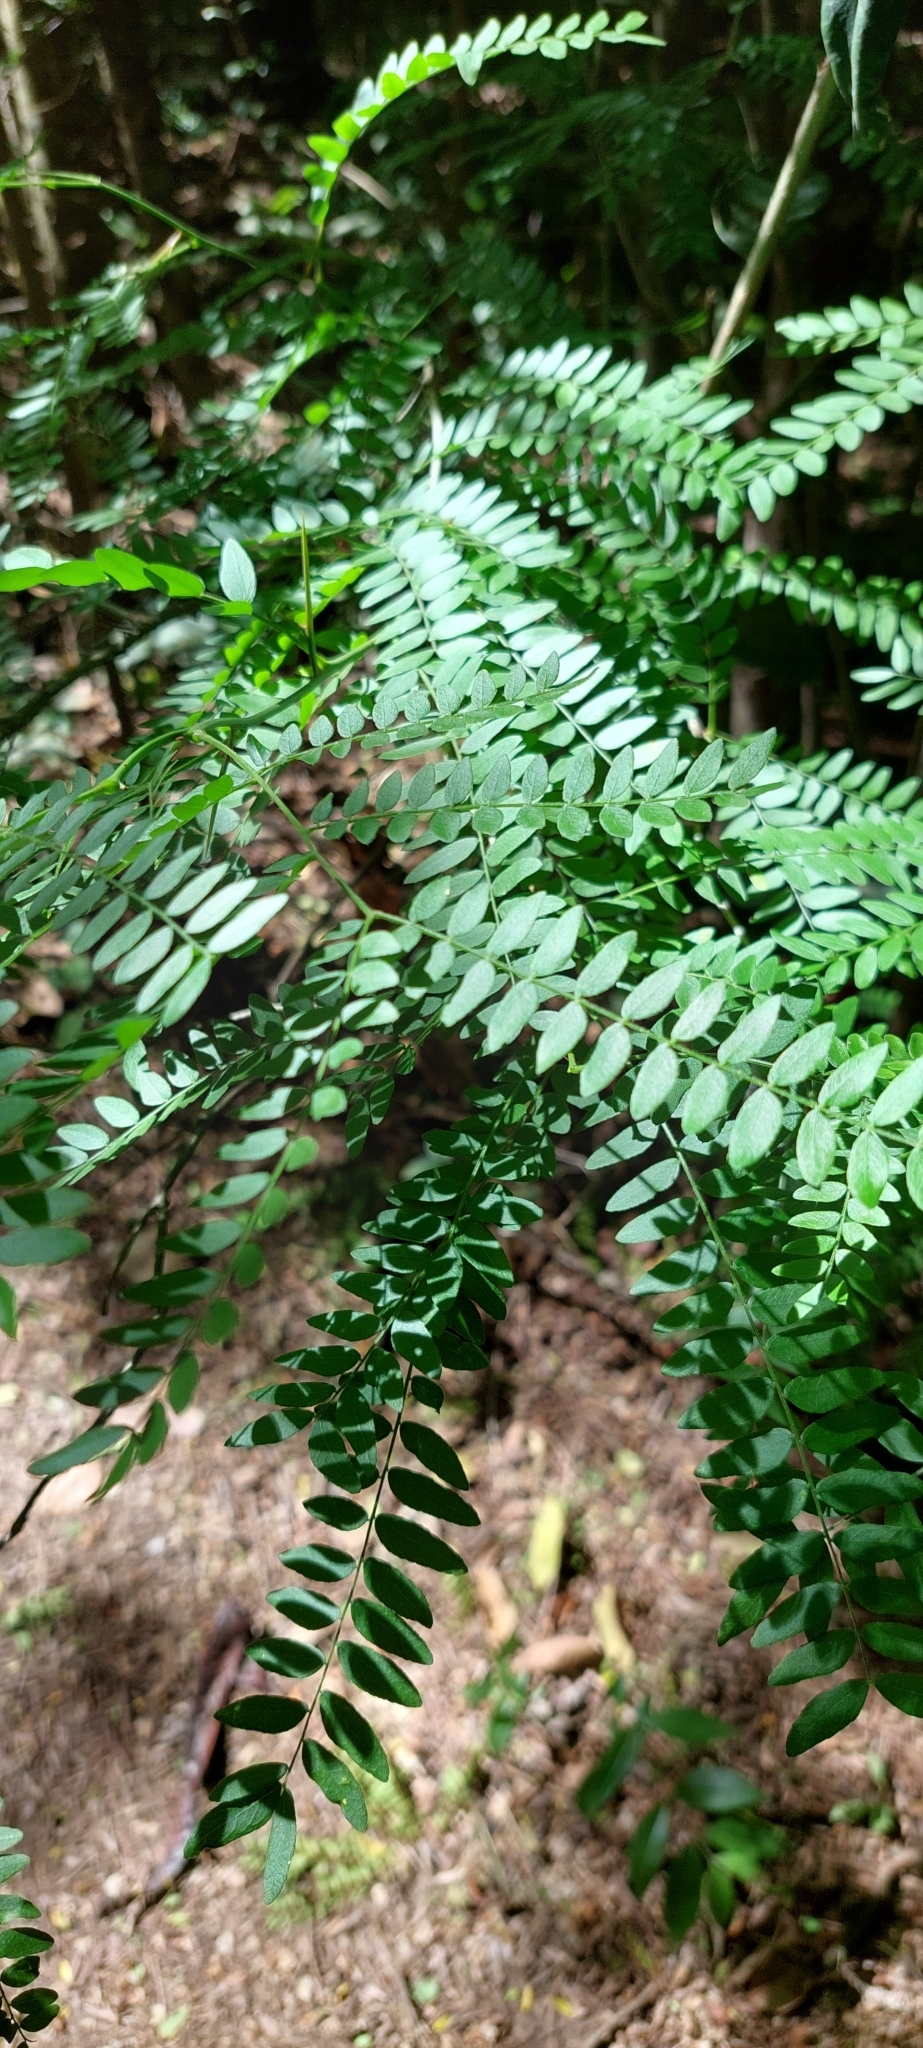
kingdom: Plantae
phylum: Tracheophyta
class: Magnoliopsida
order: Fabales
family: Fabaceae
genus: Gleditsia
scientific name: Gleditsia triacanthos
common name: Common honeylocust
